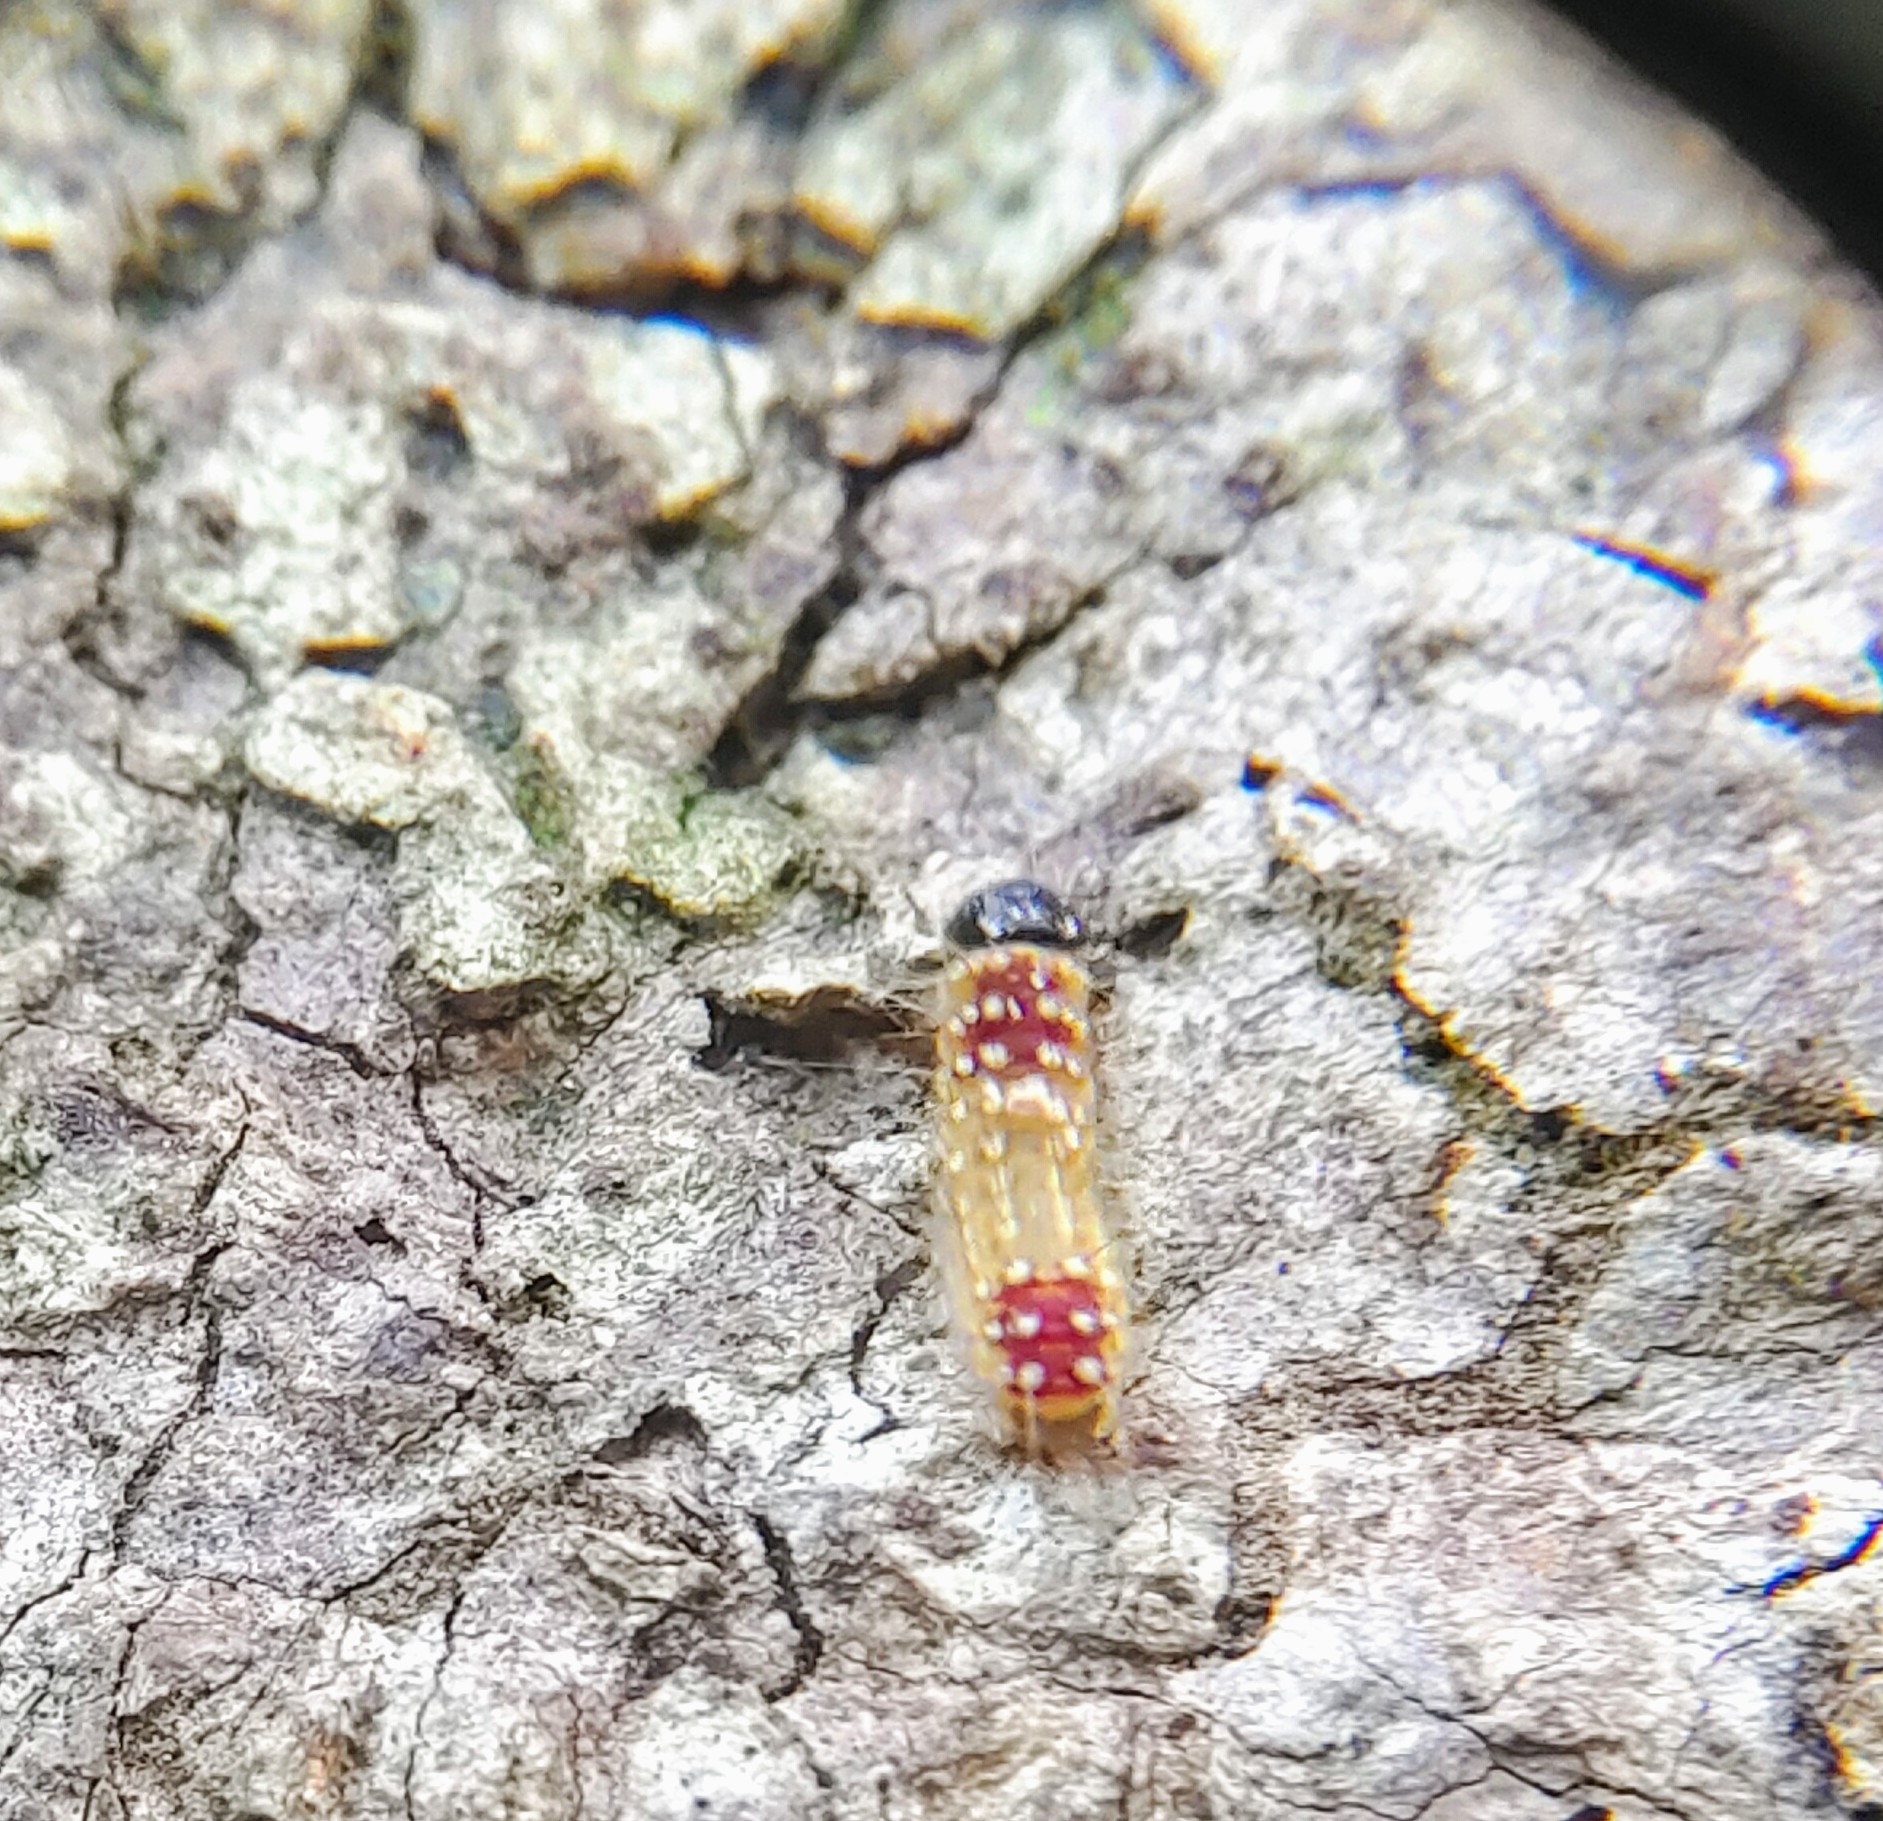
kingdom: Animalia
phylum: Arthropoda
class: Insecta
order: Lepidoptera
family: Zygaenidae
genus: Cyclosia
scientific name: Cyclosia sordidus
